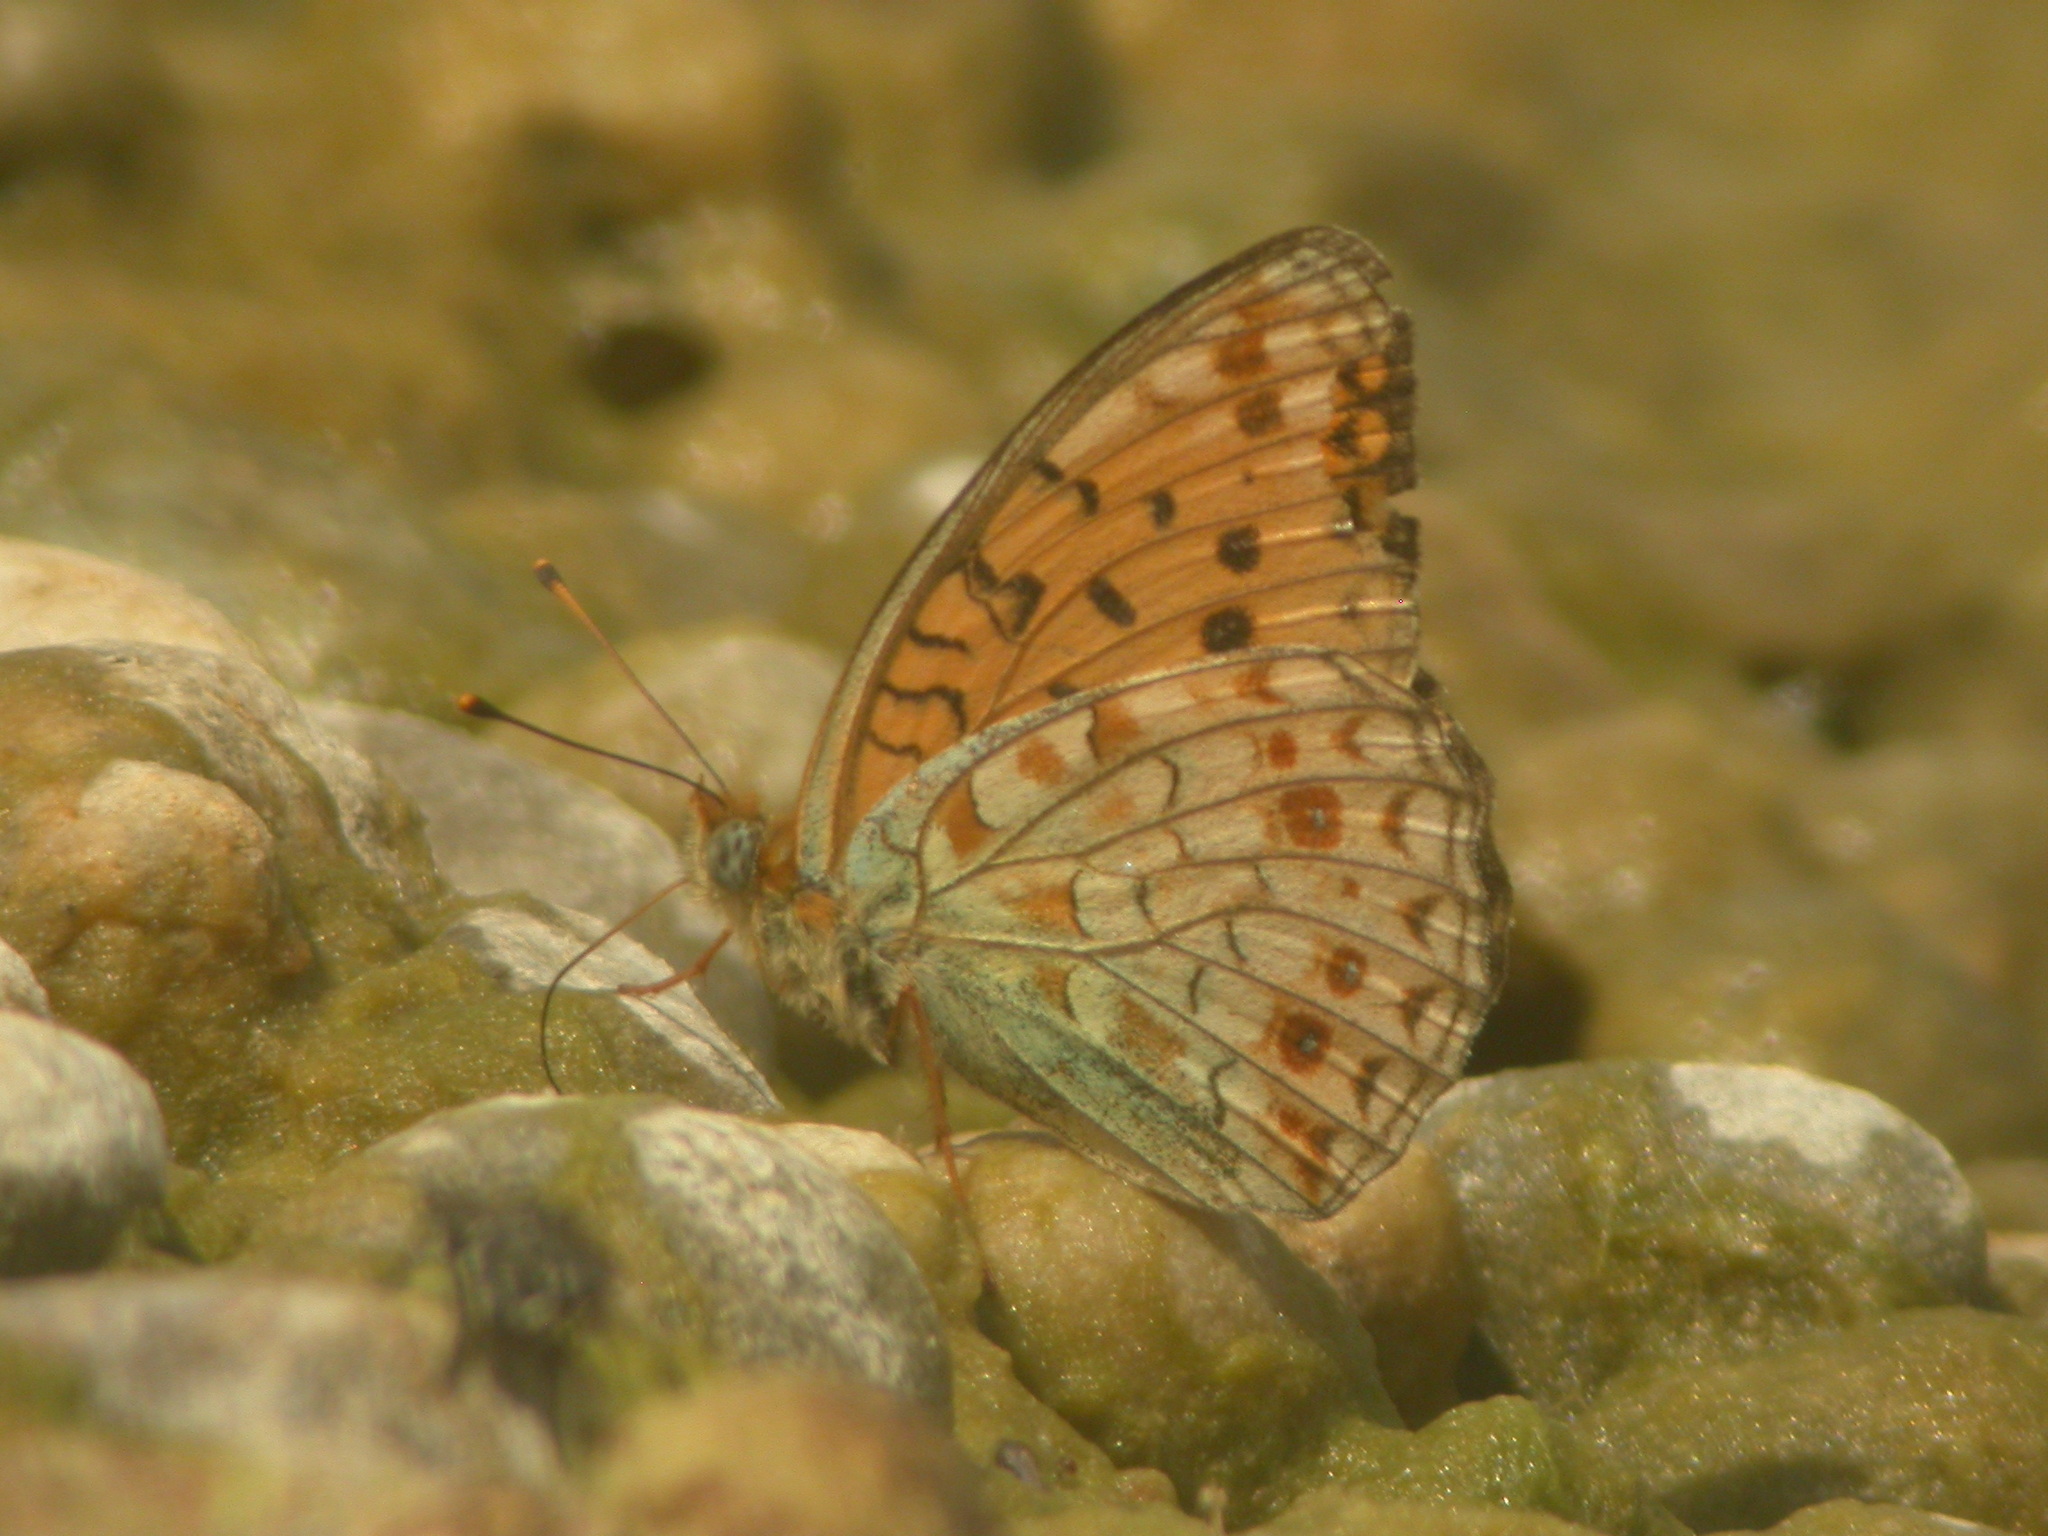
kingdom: Animalia
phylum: Arthropoda
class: Insecta
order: Lepidoptera
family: Nymphalidae
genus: Fabriciana
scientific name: Fabriciana niobe
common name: Niobe fritillary
